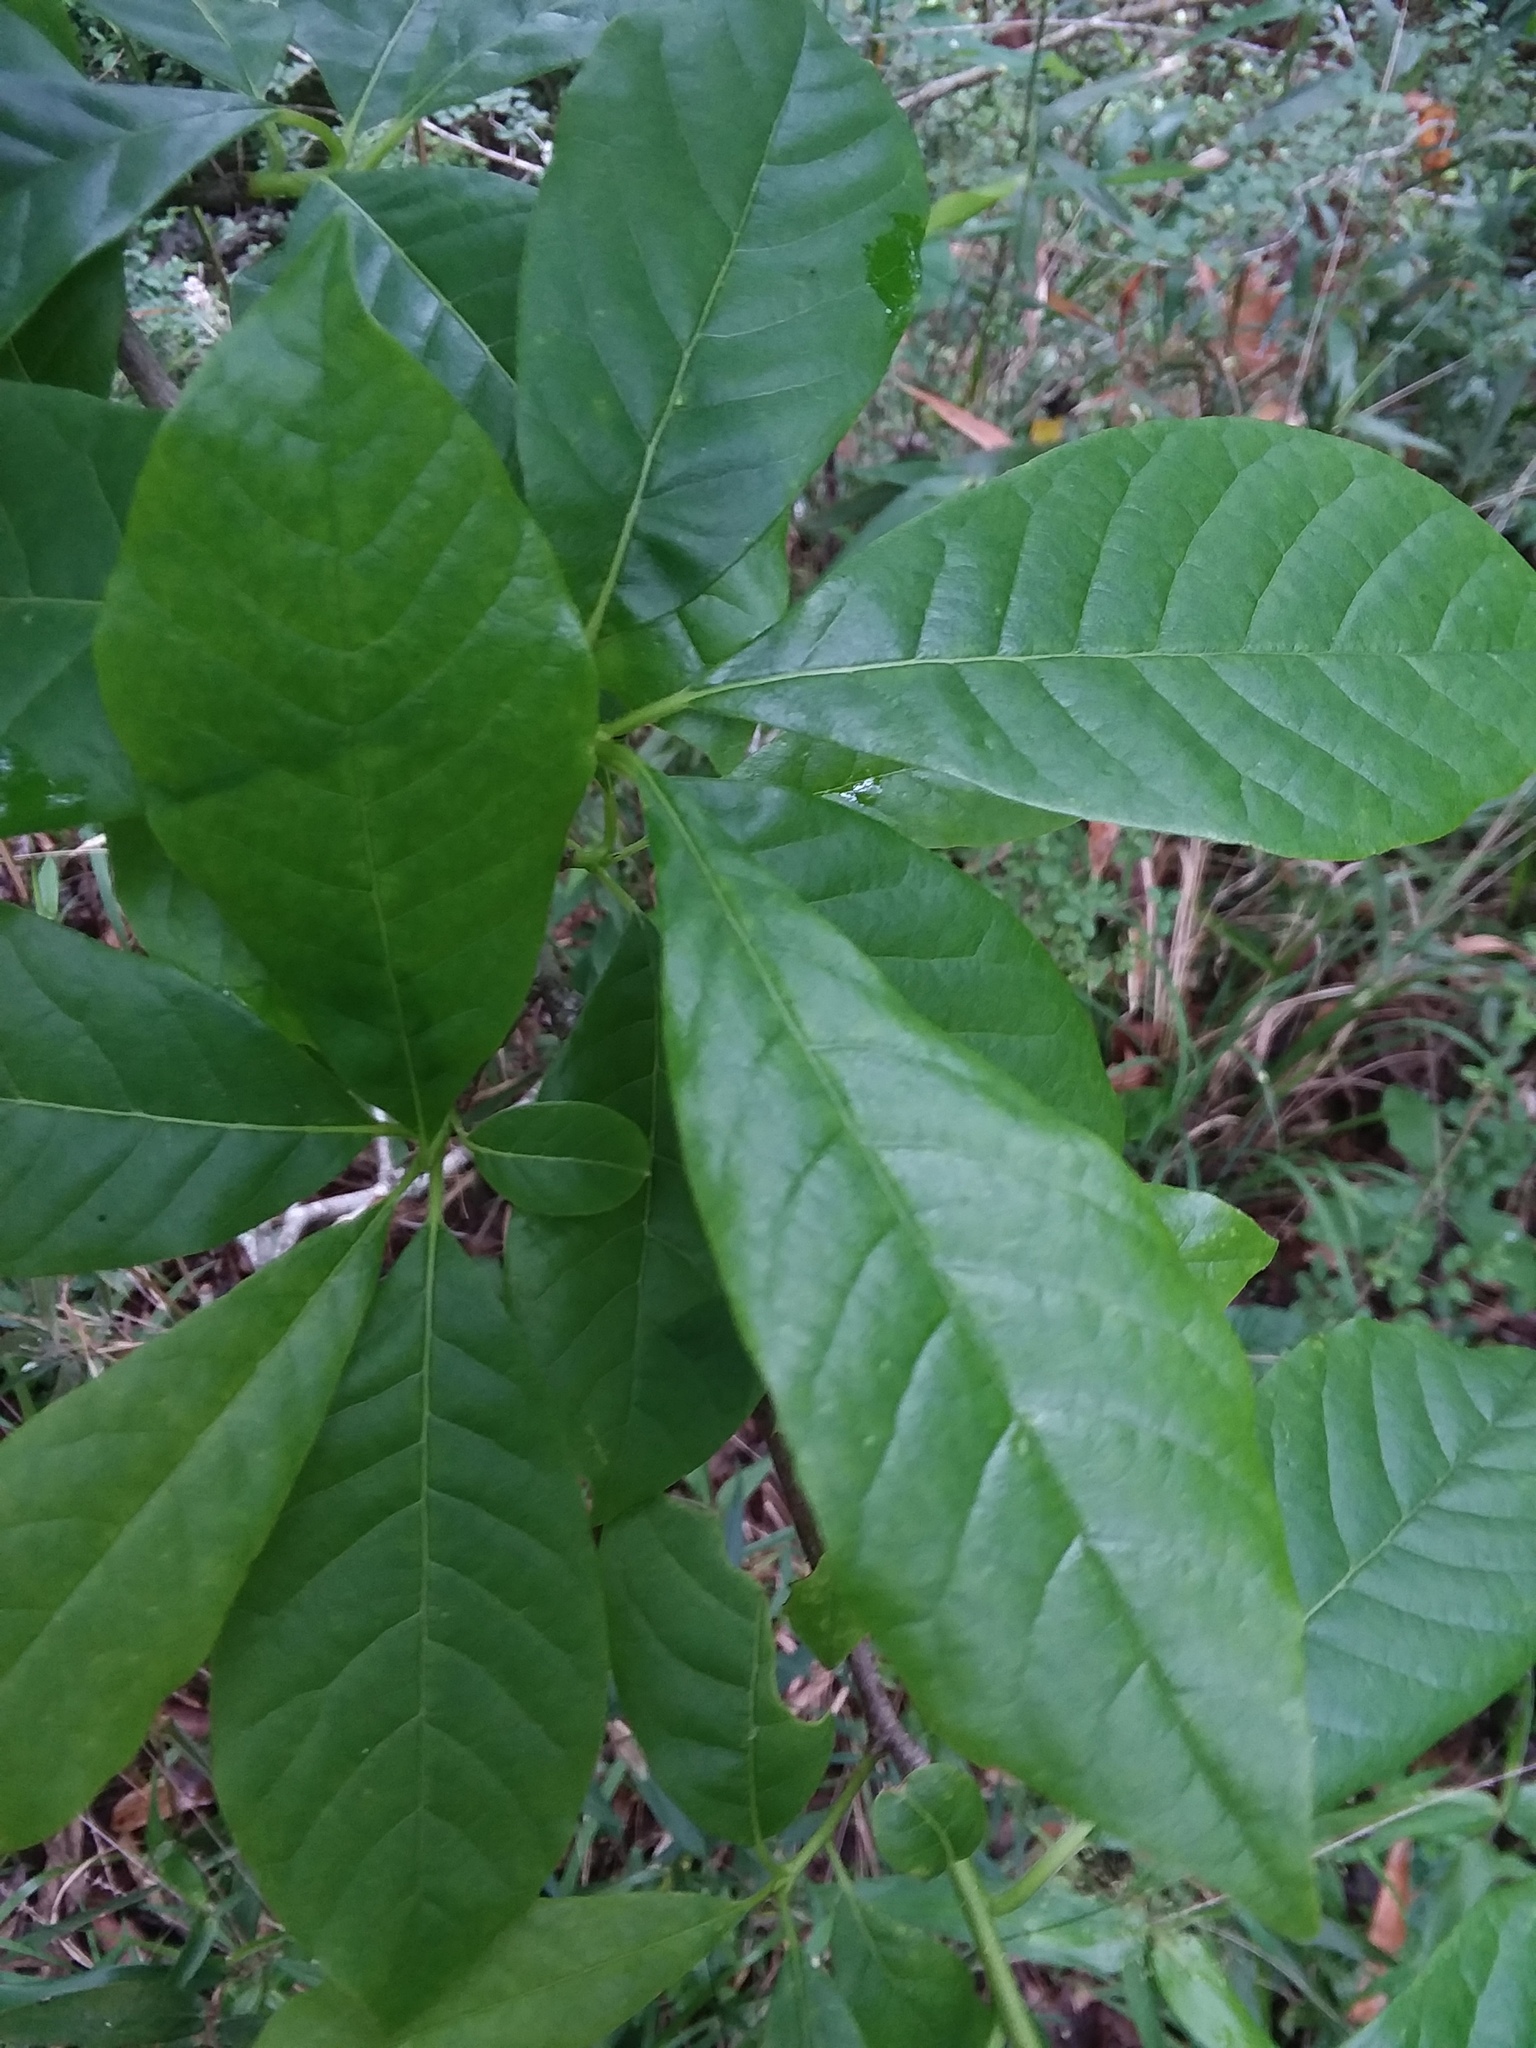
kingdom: Plantae
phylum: Tracheophyta
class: Magnoliopsida
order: Cornales
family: Nyssaceae
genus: Nyssa
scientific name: Nyssa sylvatica
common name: Black tupelo
